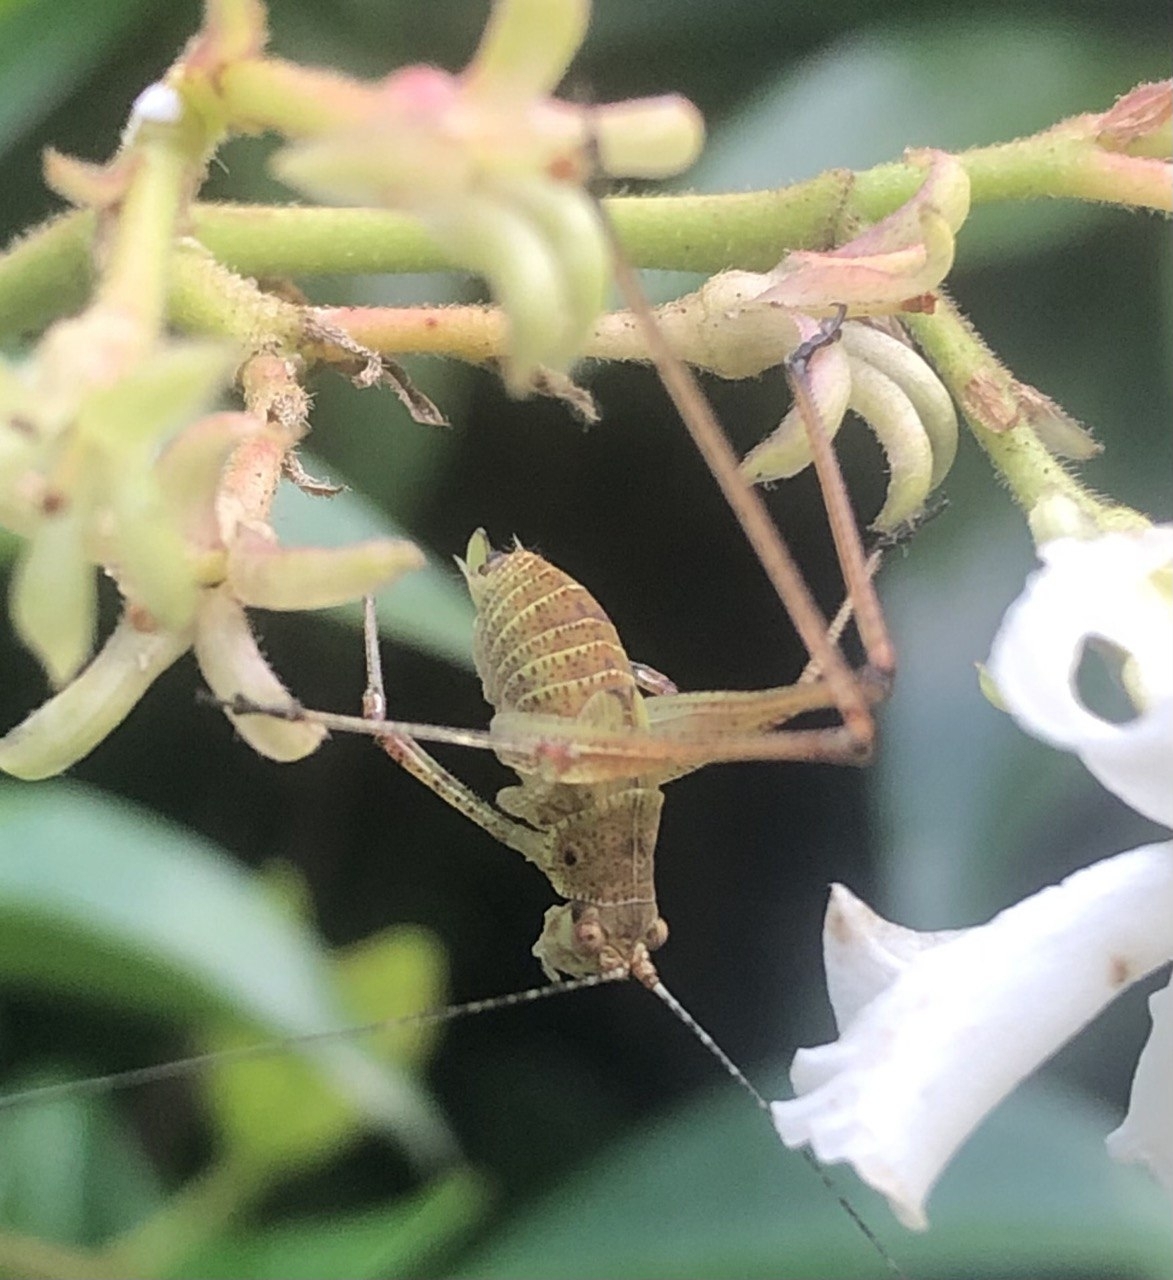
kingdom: Animalia
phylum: Arthropoda
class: Insecta
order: Orthoptera
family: Tettigoniidae
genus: Phaneroptera
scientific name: Phaneroptera nana
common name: Southern sickle bush-cricket
